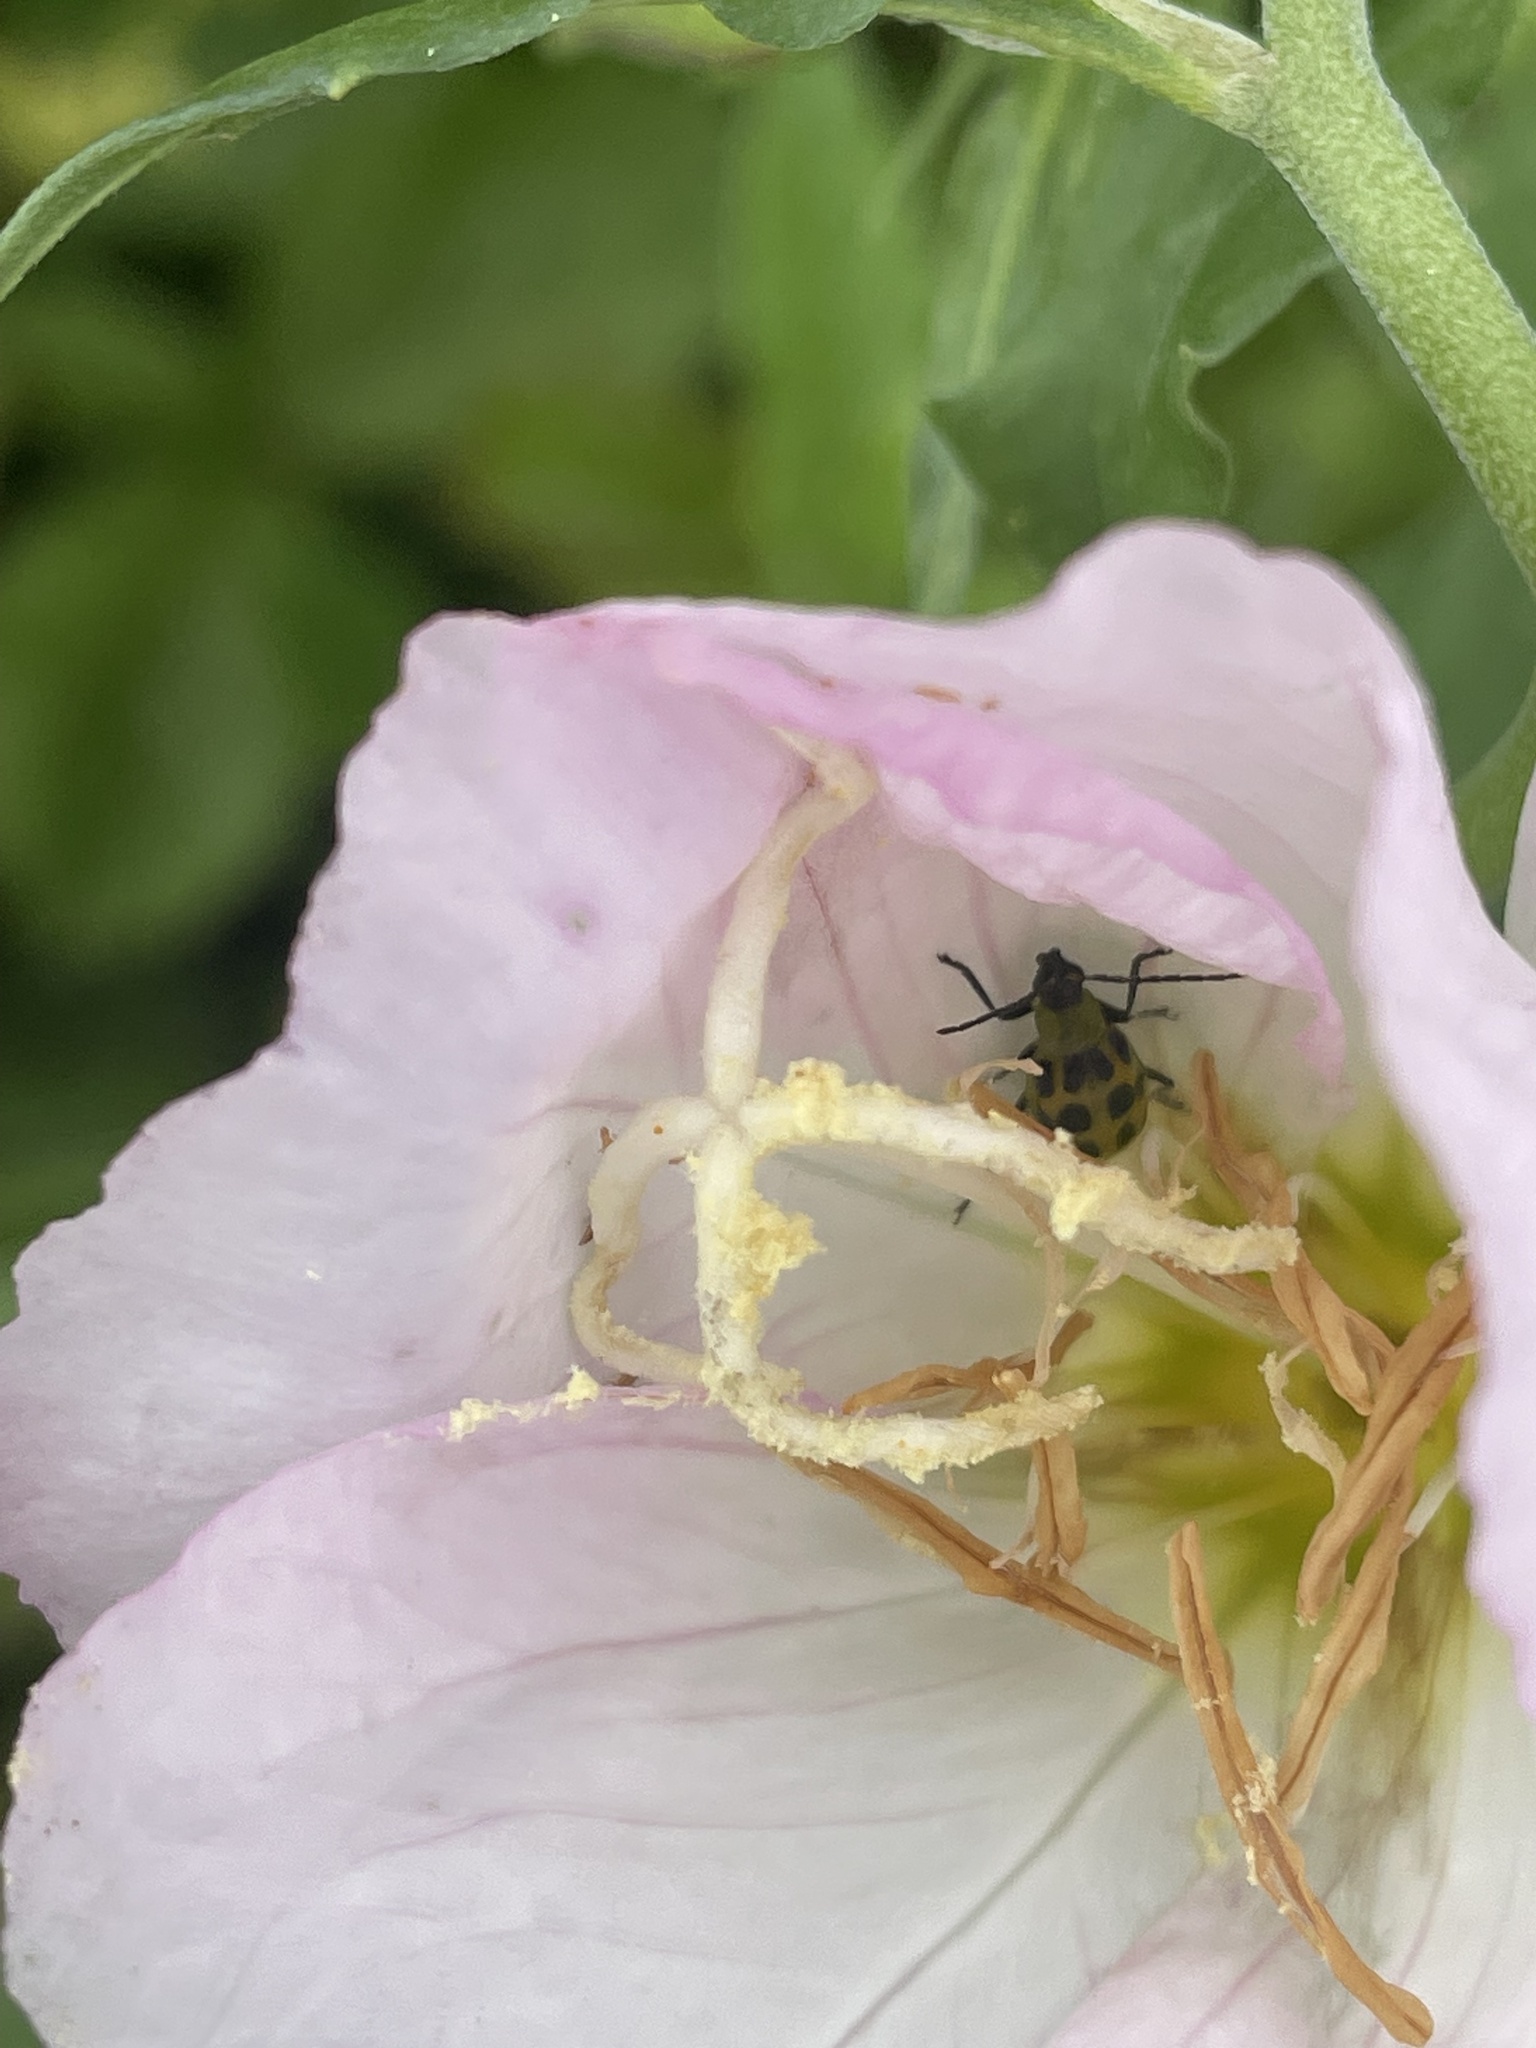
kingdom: Animalia
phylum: Arthropoda
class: Insecta
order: Coleoptera
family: Chrysomelidae
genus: Diabrotica
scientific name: Diabrotica undecimpunctata
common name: Spotted cucumber beetle
